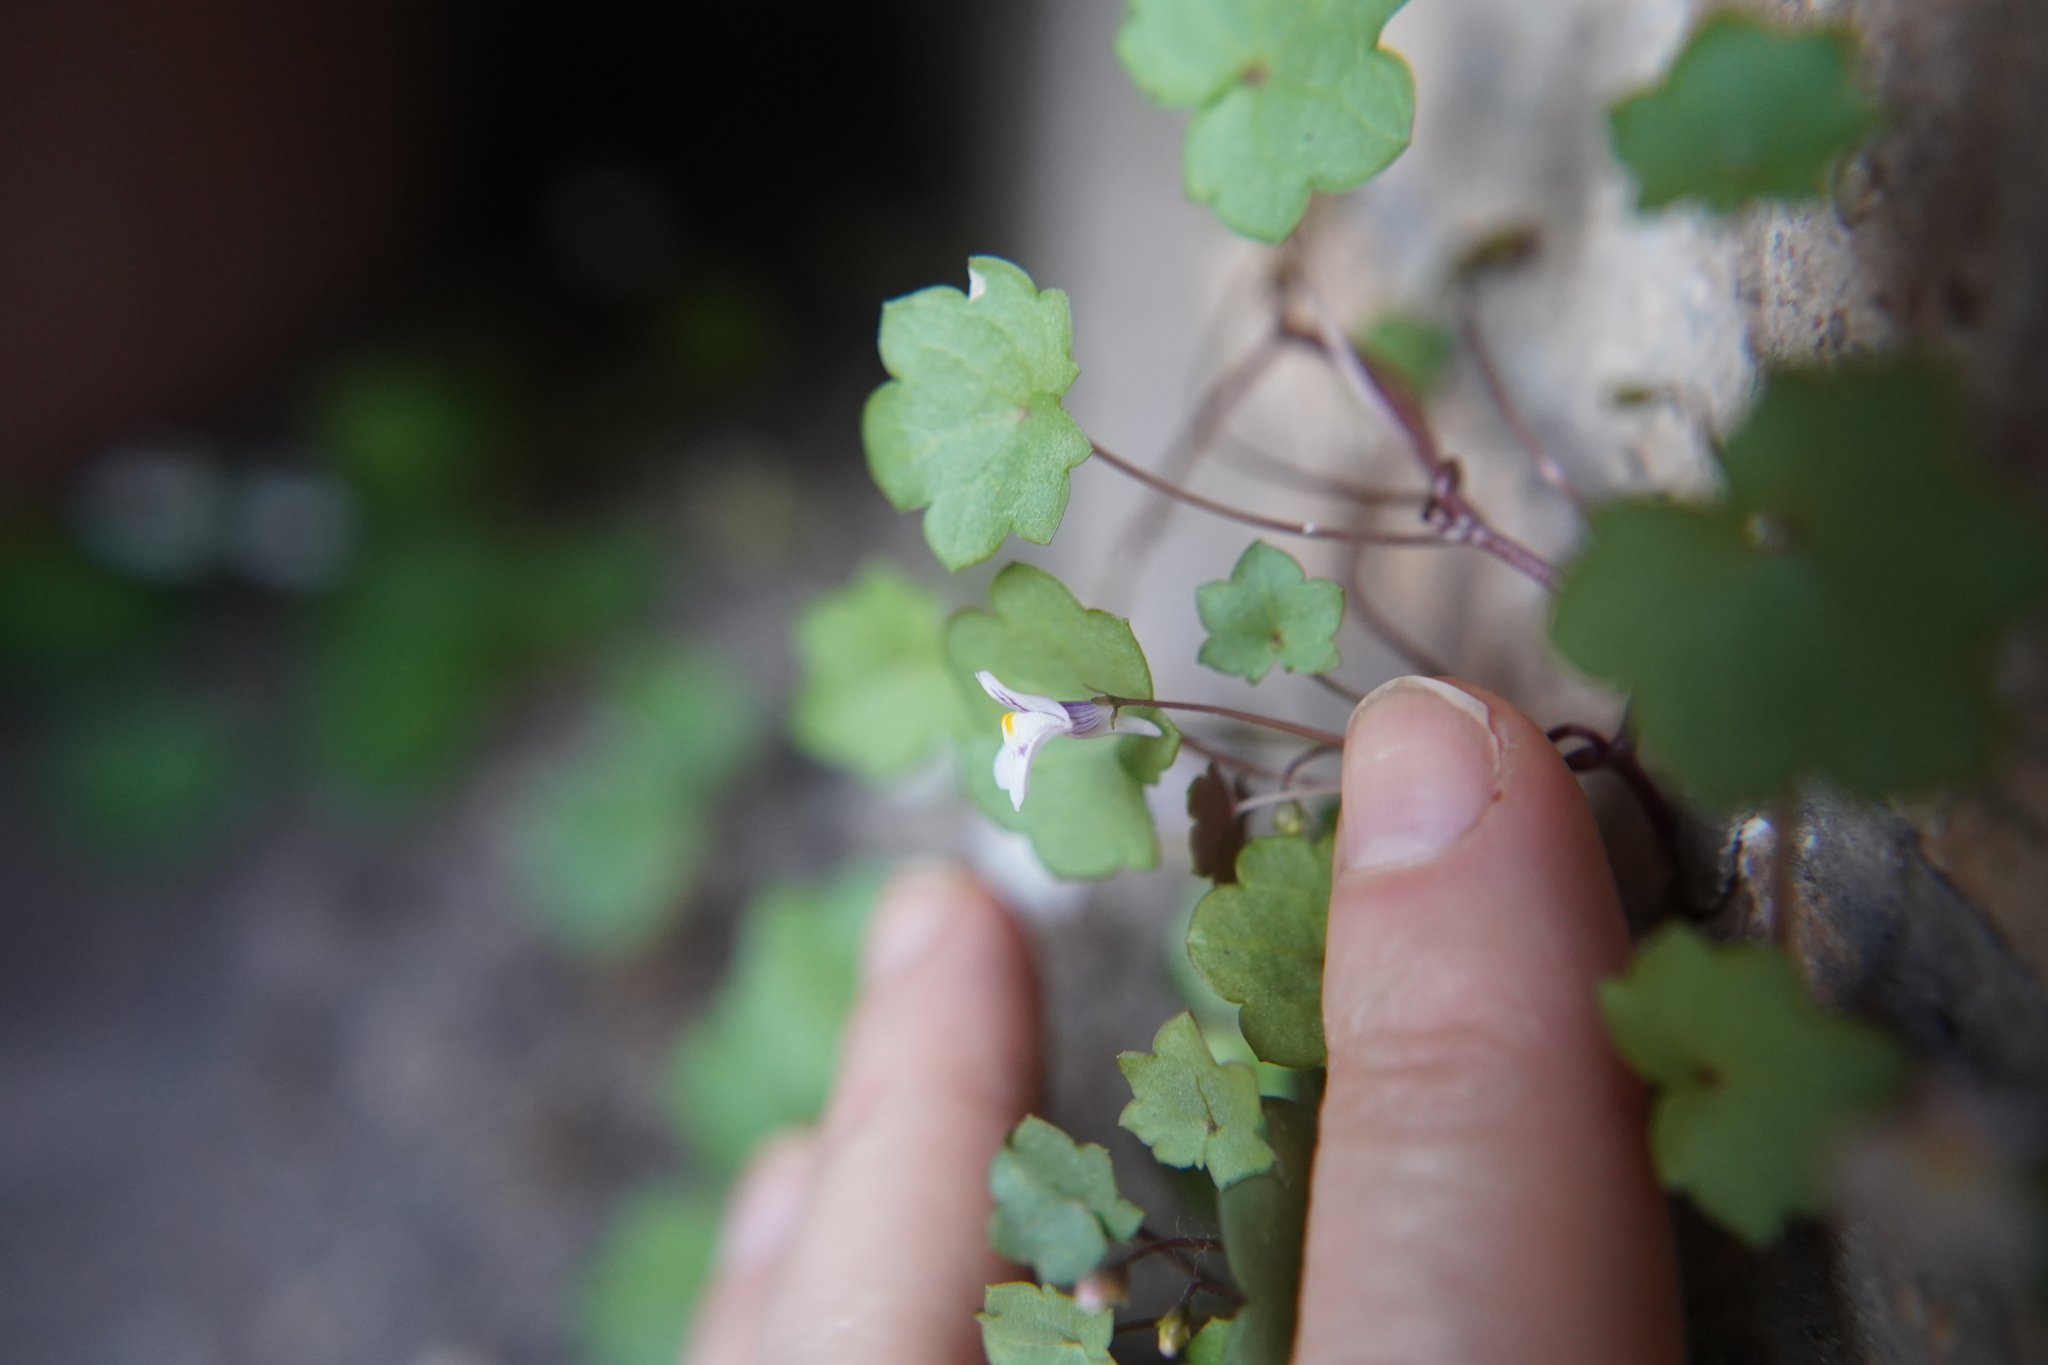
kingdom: Plantae
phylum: Tracheophyta
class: Magnoliopsida
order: Lamiales
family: Plantaginaceae
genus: Cymbalaria
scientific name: Cymbalaria muralis
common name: Ivy-leaved toadflax
